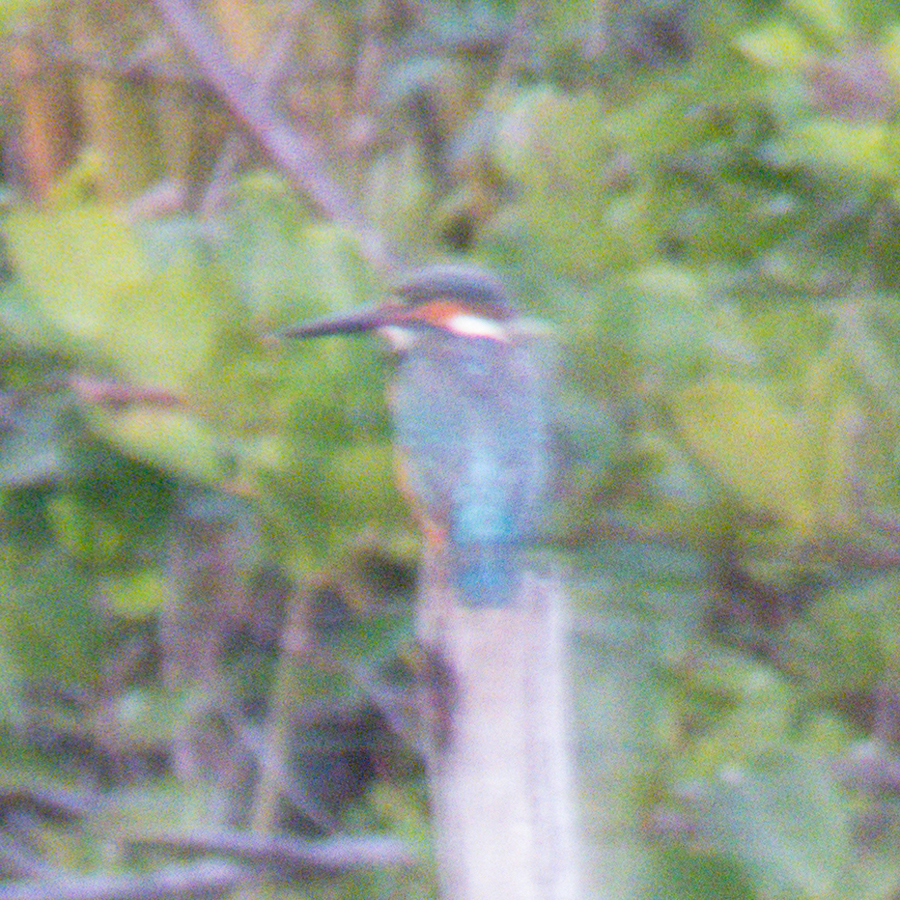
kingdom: Animalia
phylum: Chordata
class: Aves
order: Coraciiformes
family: Alcedinidae
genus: Alcedo
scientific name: Alcedo atthis
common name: Common kingfisher
